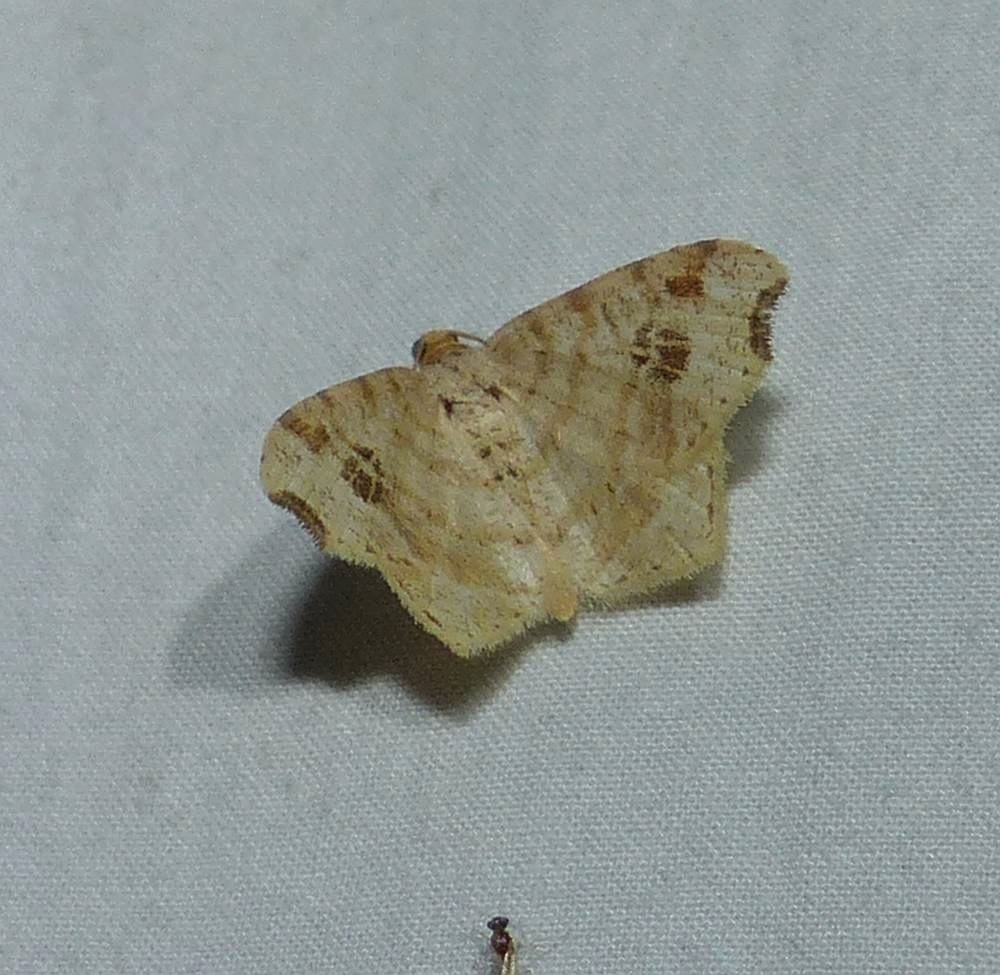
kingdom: Animalia
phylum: Arthropoda
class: Insecta
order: Lepidoptera
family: Geometridae
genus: Macaria
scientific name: Macaria aemulataria
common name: Common angle
